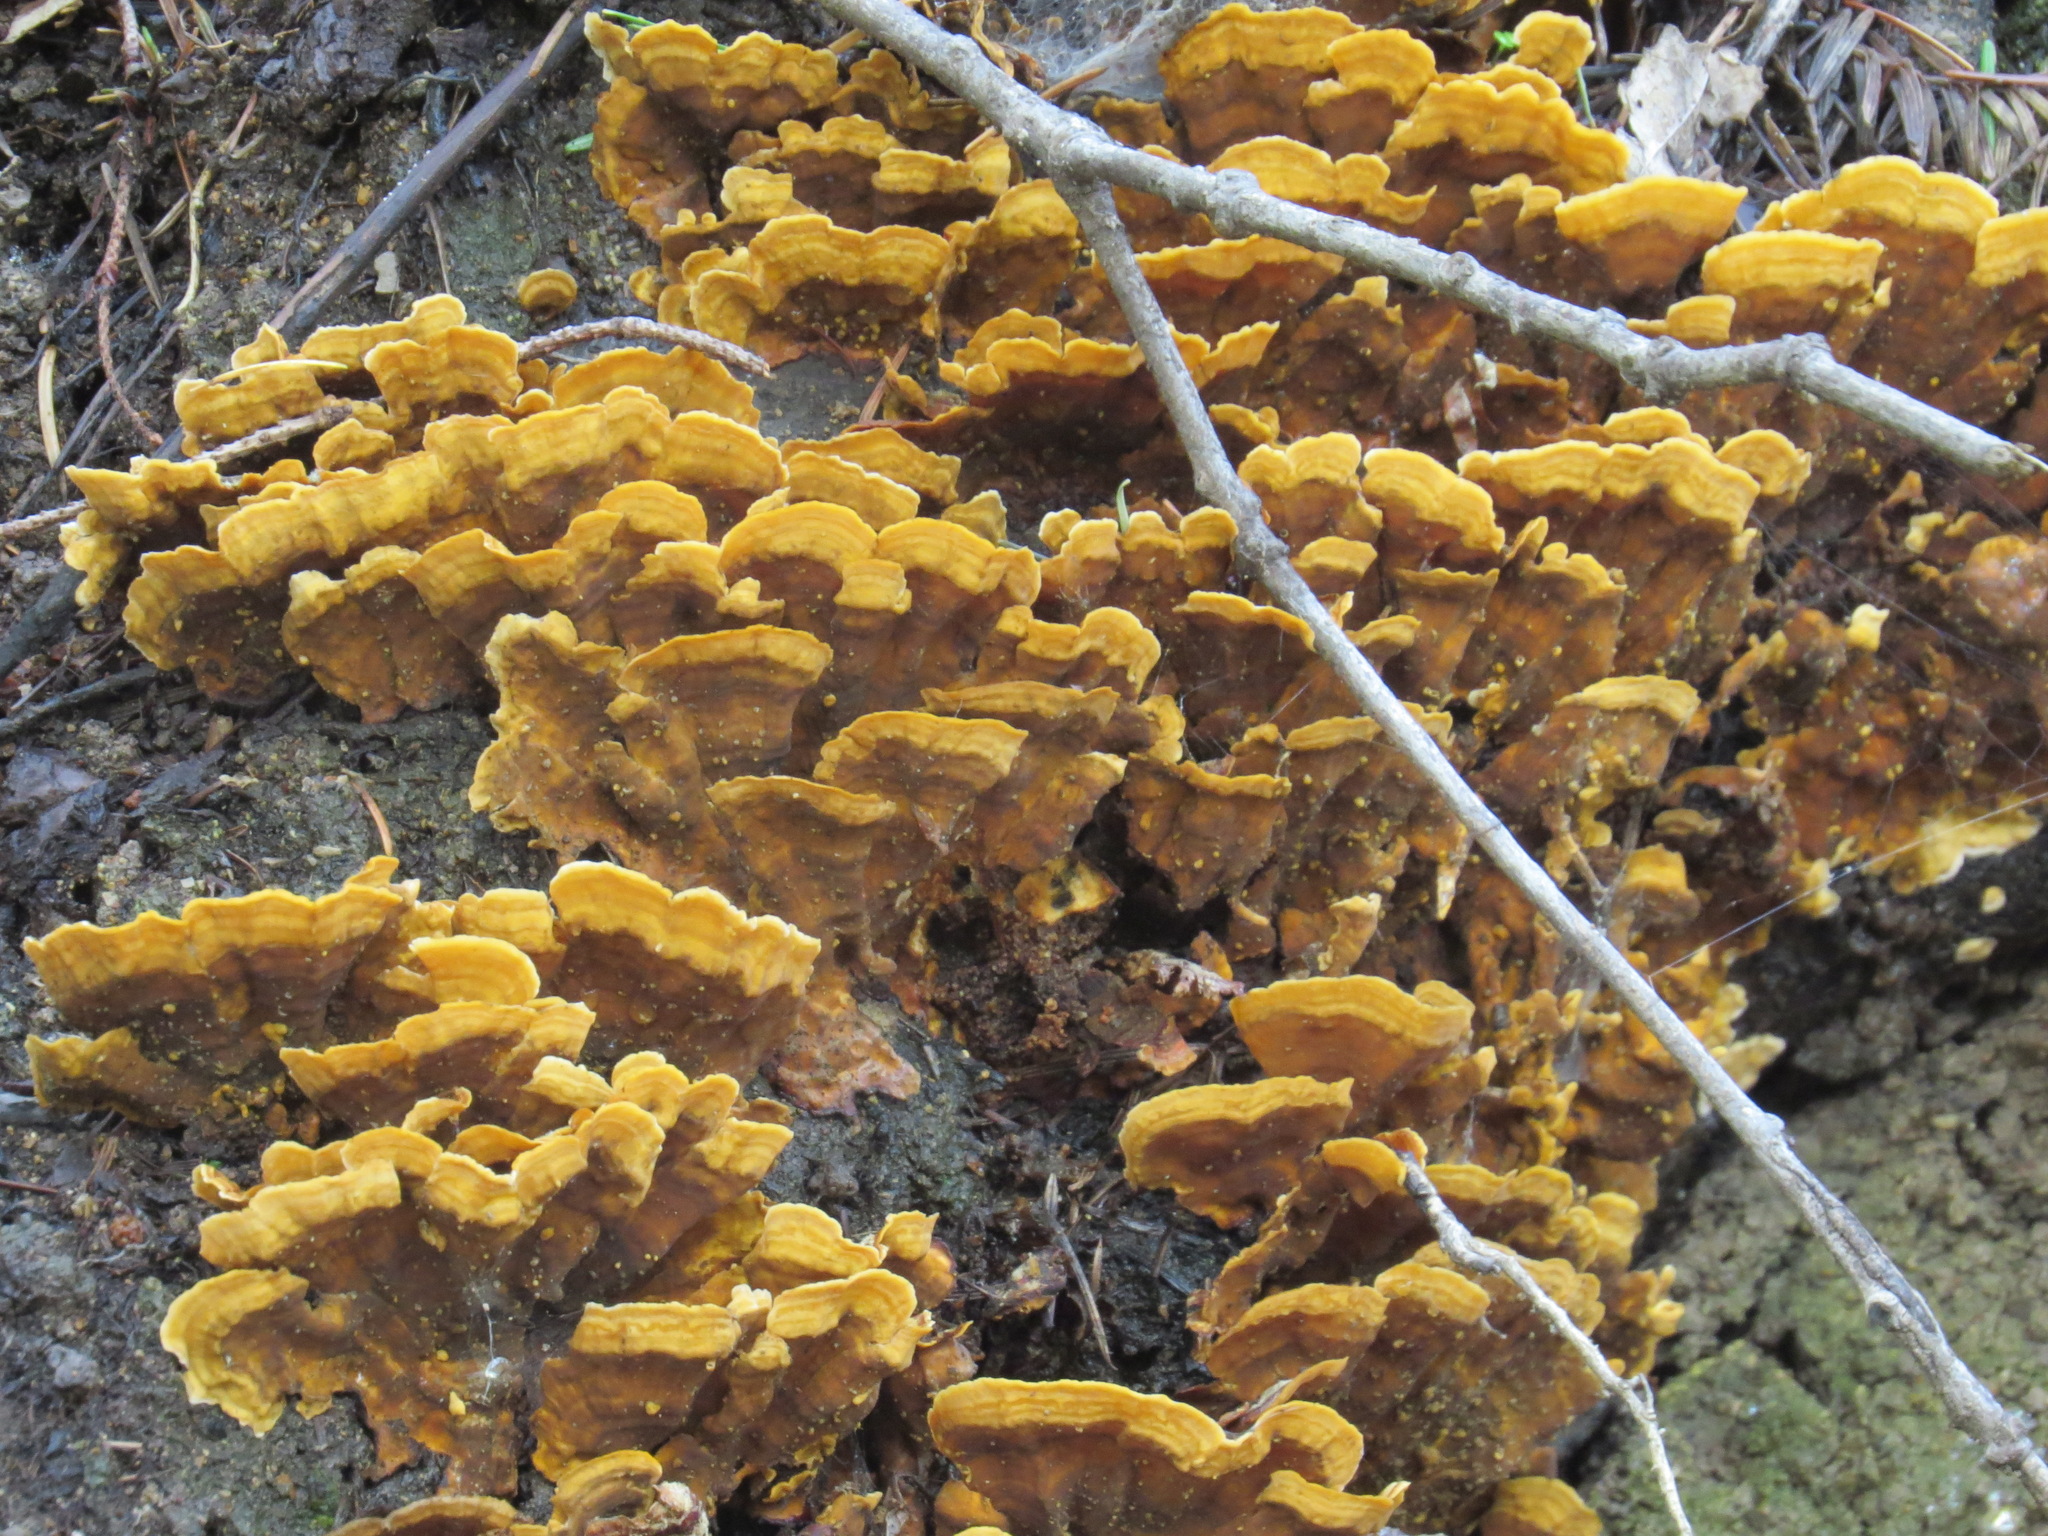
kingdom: Fungi
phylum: Basidiomycota
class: Agaricomycetes
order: Russulales
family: Stereaceae
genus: Stereum
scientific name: Stereum hirsutum
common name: Hairy curtain crust
